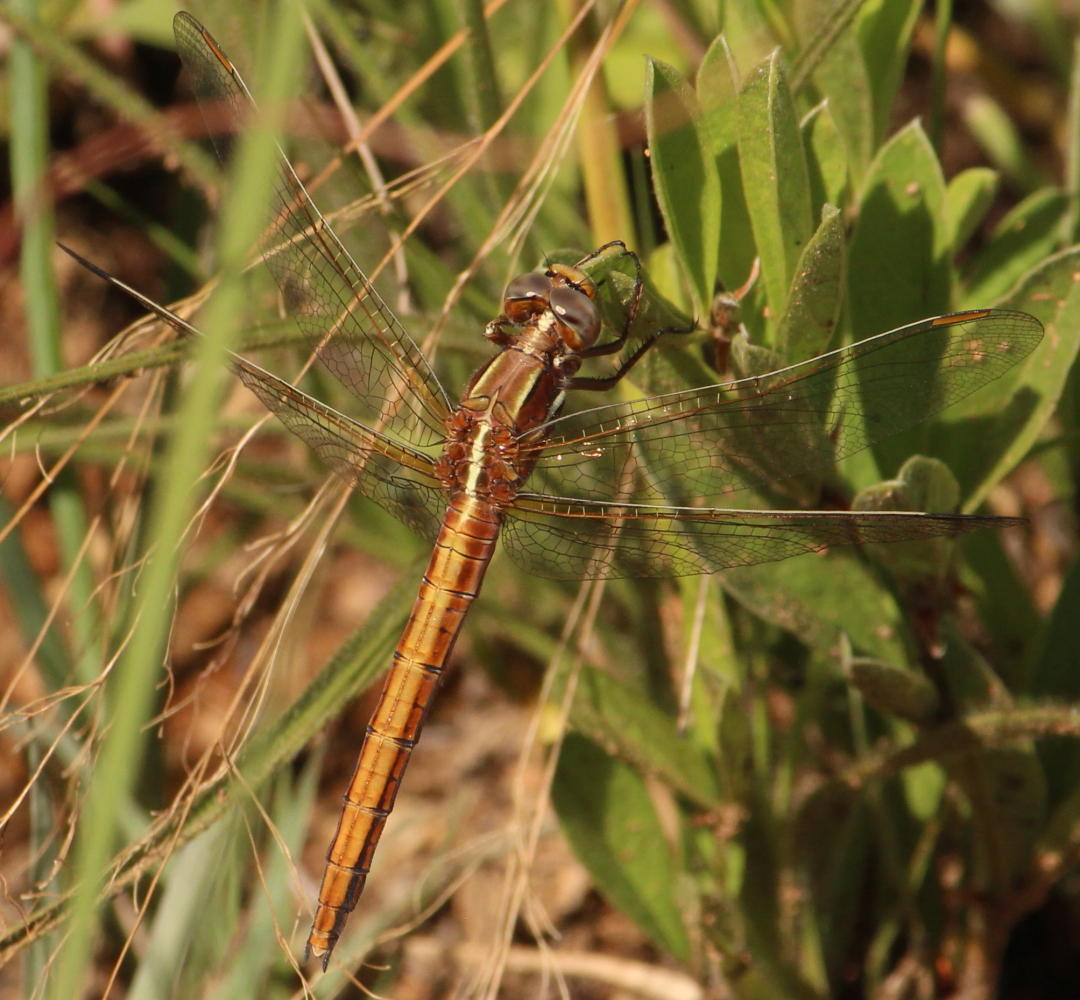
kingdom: Animalia
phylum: Arthropoda
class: Insecta
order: Odonata
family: Libellulidae
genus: Orthetrum
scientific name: Orthetrum caffrum
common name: Two-striped skimmer
